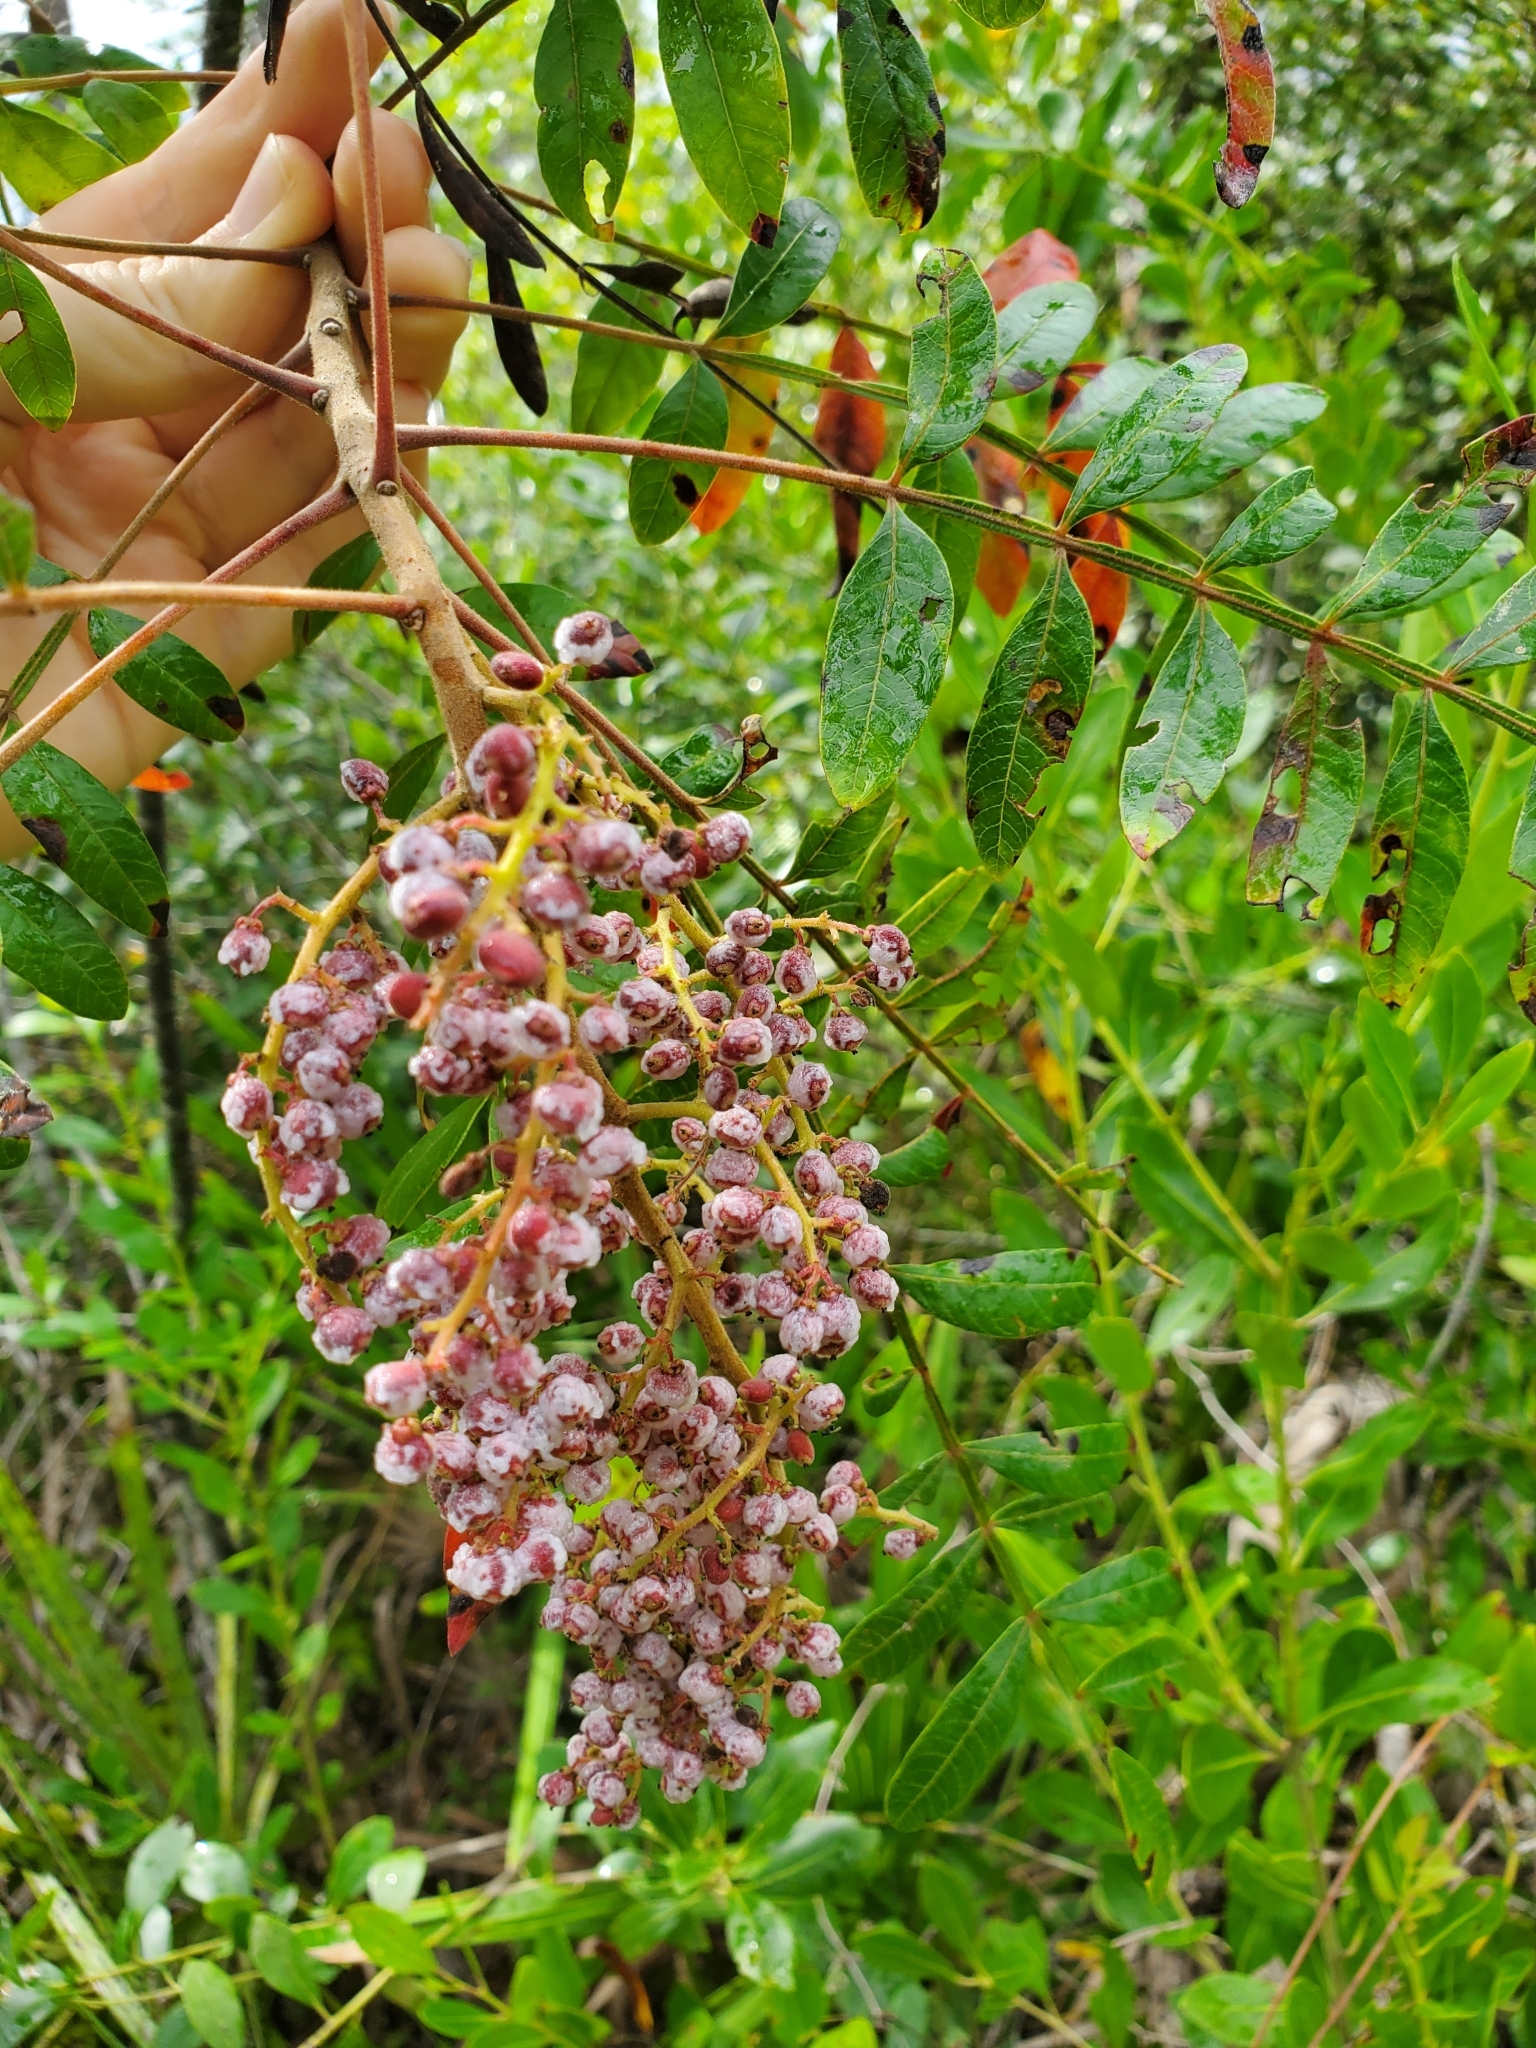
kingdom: Plantae
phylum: Tracheophyta
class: Magnoliopsida
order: Sapindales
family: Anacardiaceae
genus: Rhus
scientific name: Rhus copallina
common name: Shining sumac
